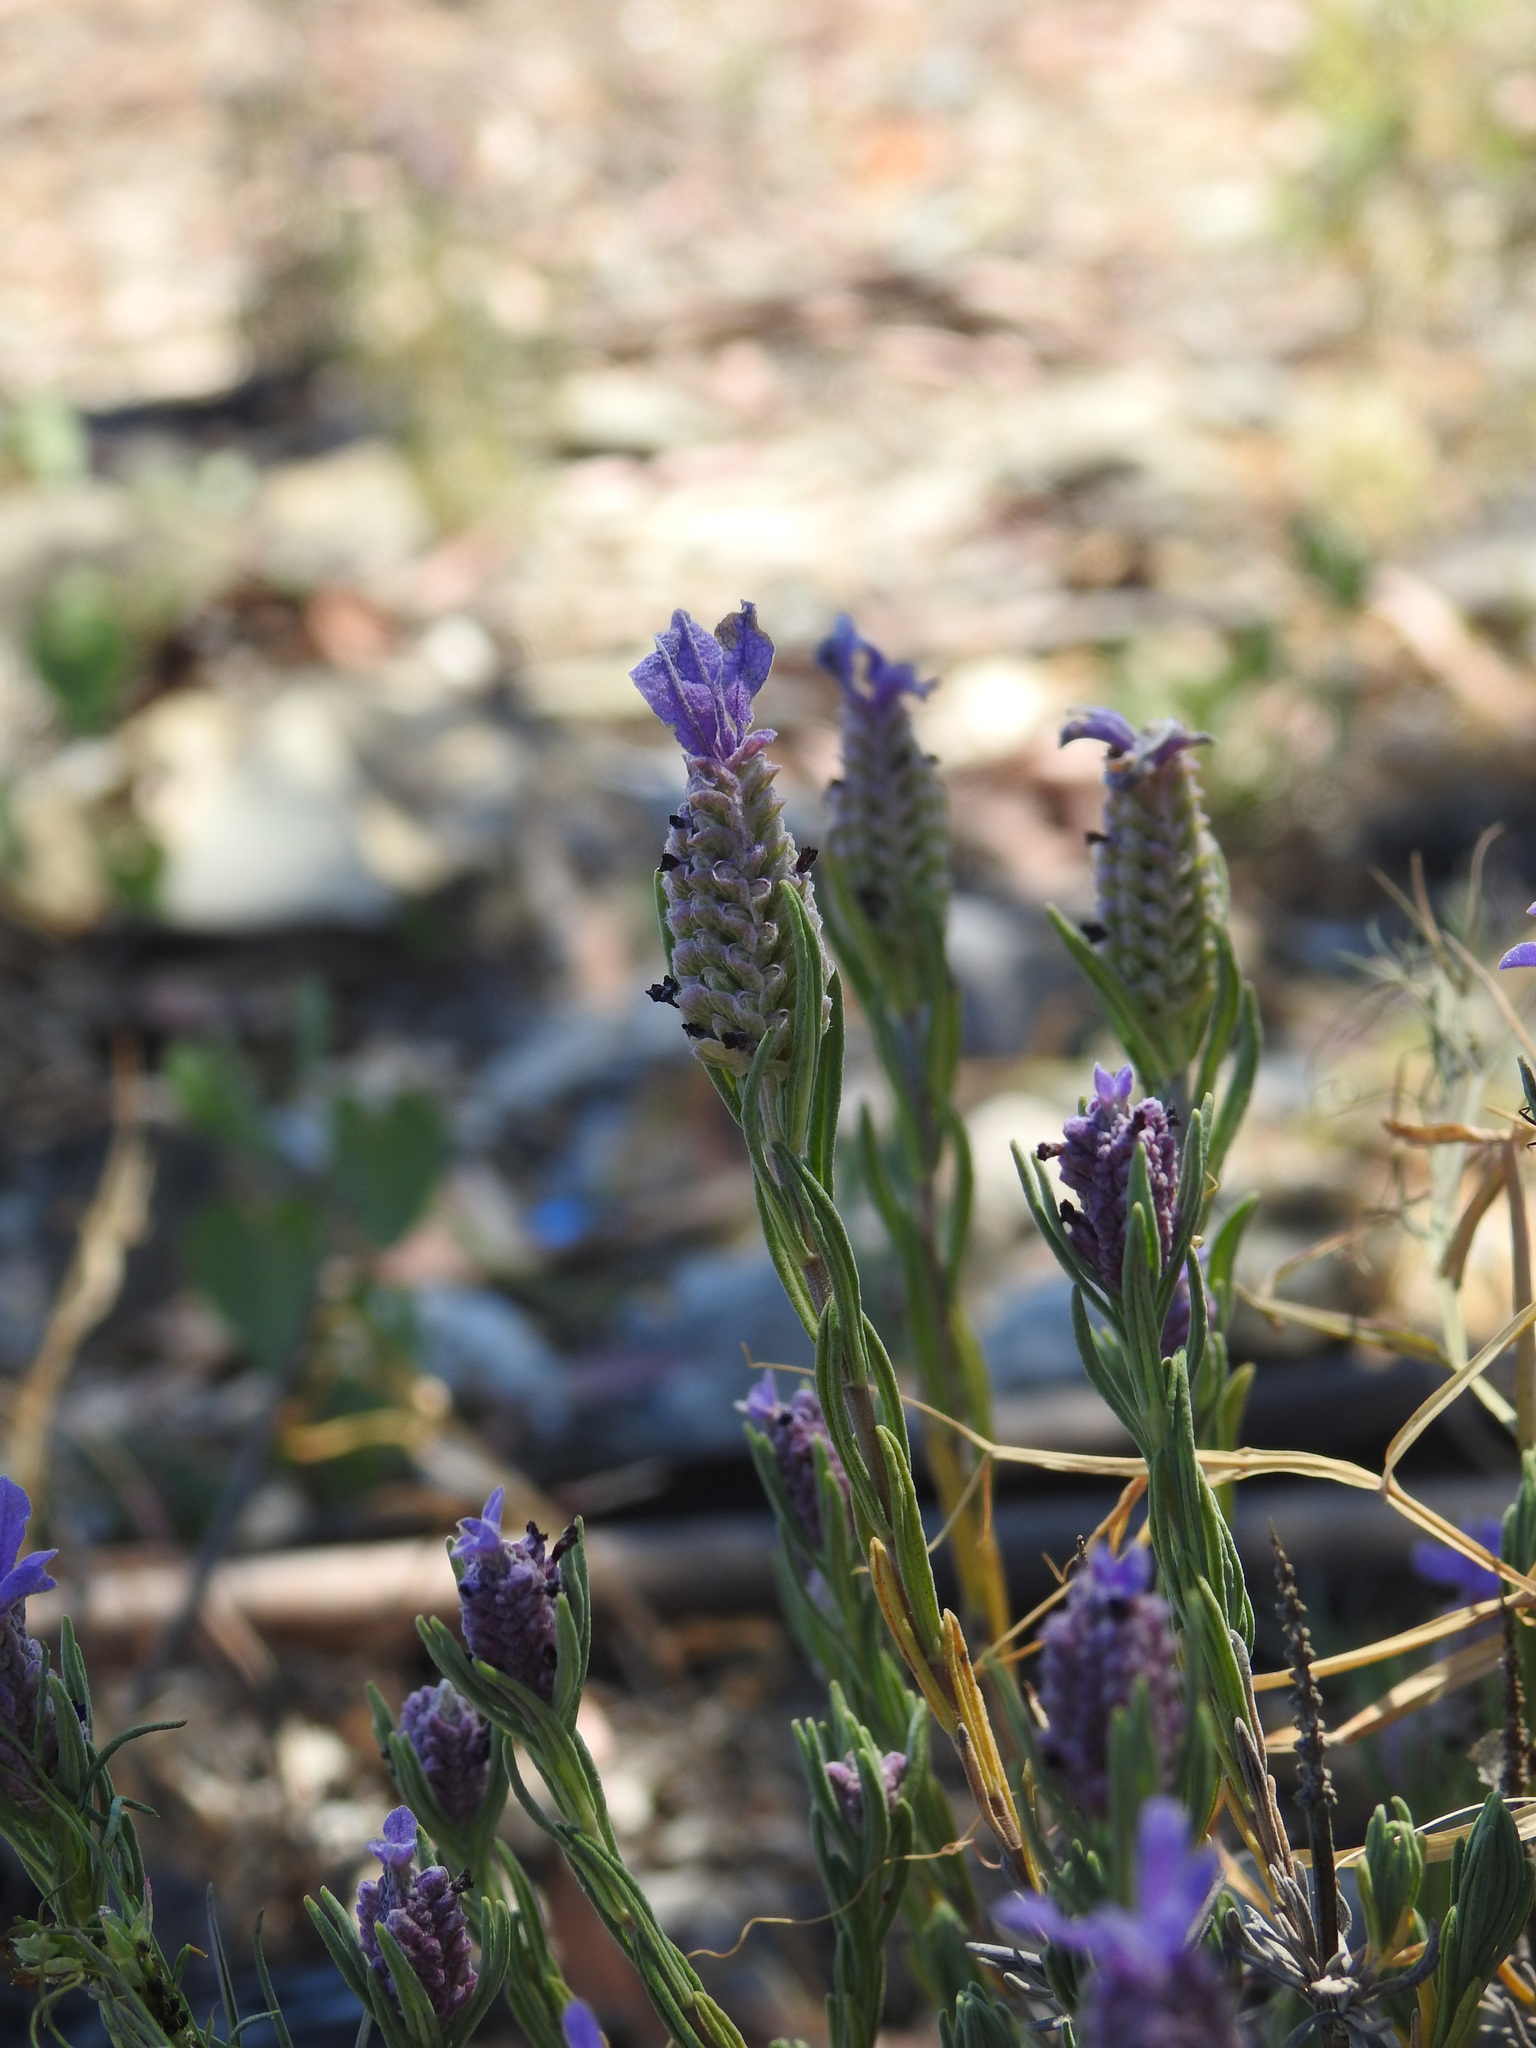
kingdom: Plantae
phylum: Tracheophyta
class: Magnoliopsida
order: Lamiales
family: Lamiaceae
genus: Lavandula
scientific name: Lavandula stoechas
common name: French lavender
